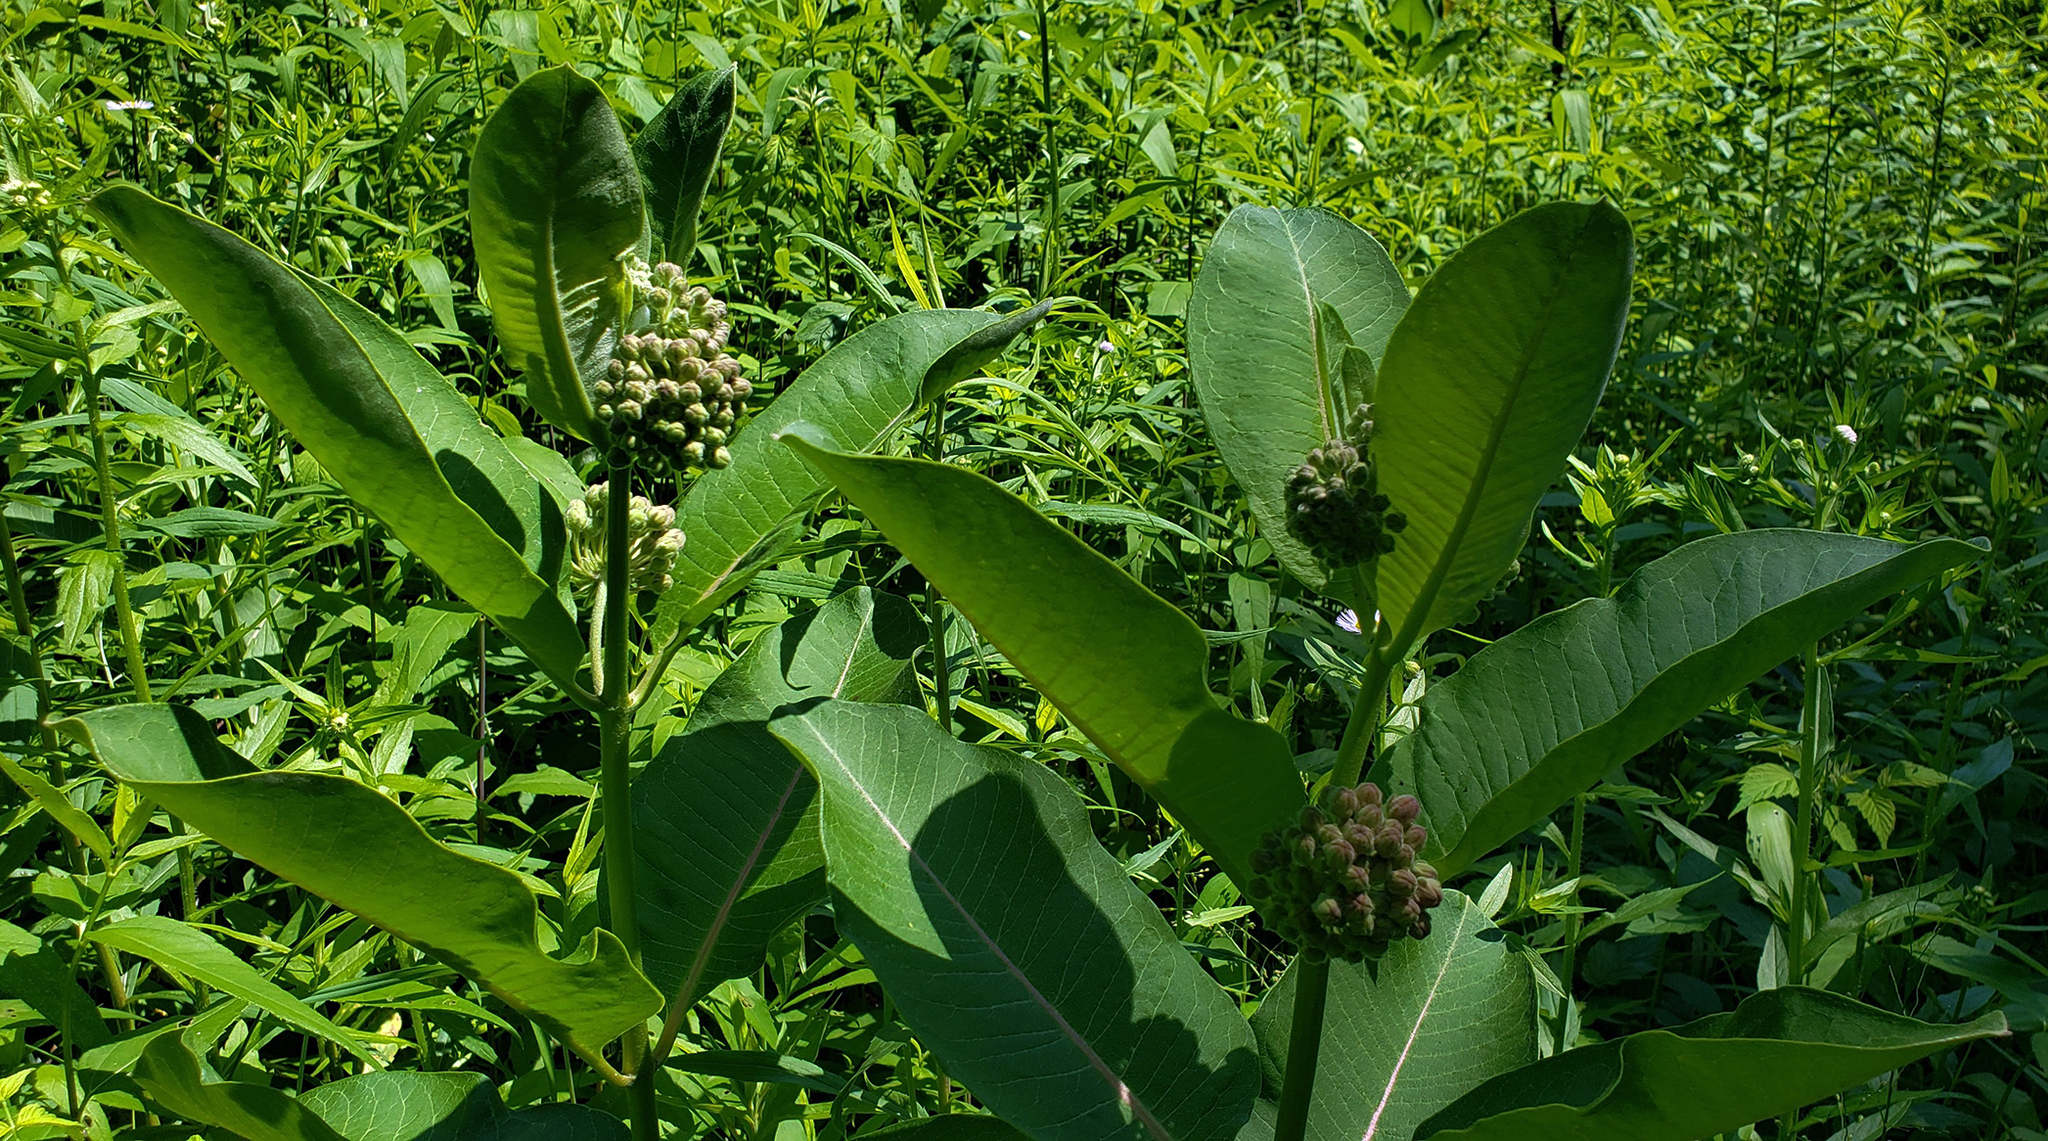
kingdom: Plantae
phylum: Tracheophyta
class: Magnoliopsida
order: Gentianales
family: Apocynaceae
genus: Asclepias
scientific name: Asclepias syriaca
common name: Common milkweed
